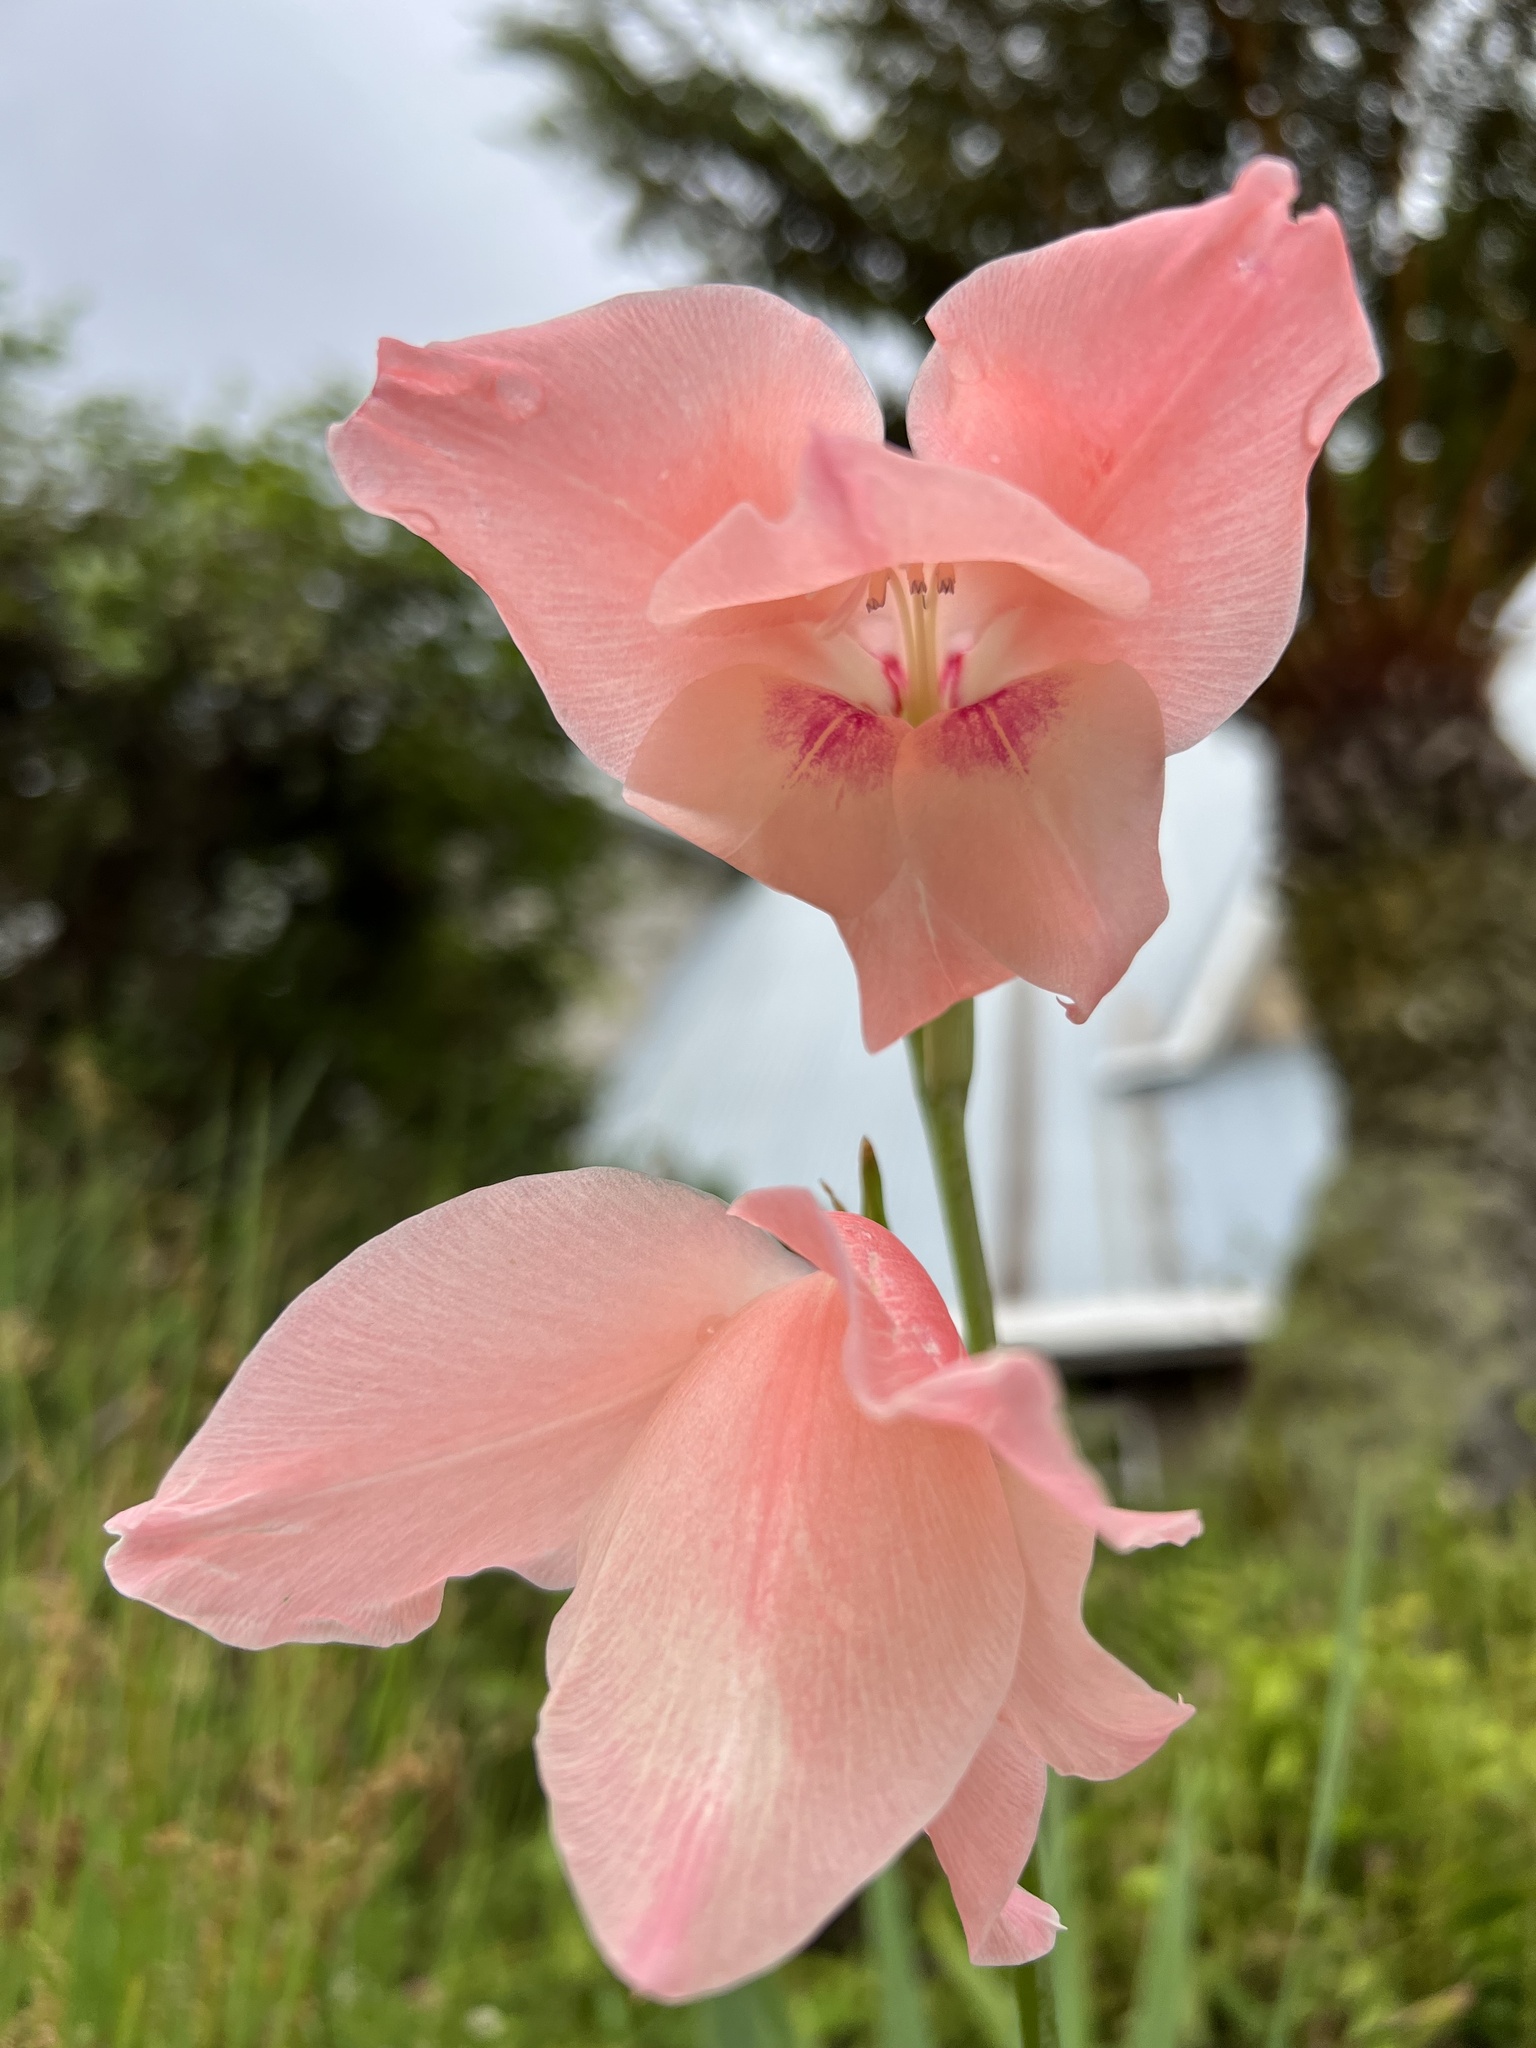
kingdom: Plantae
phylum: Tracheophyta
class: Liliopsida
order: Asparagales
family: Iridaceae
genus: Gladiolus
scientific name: Gladiolus oppositiflorus
